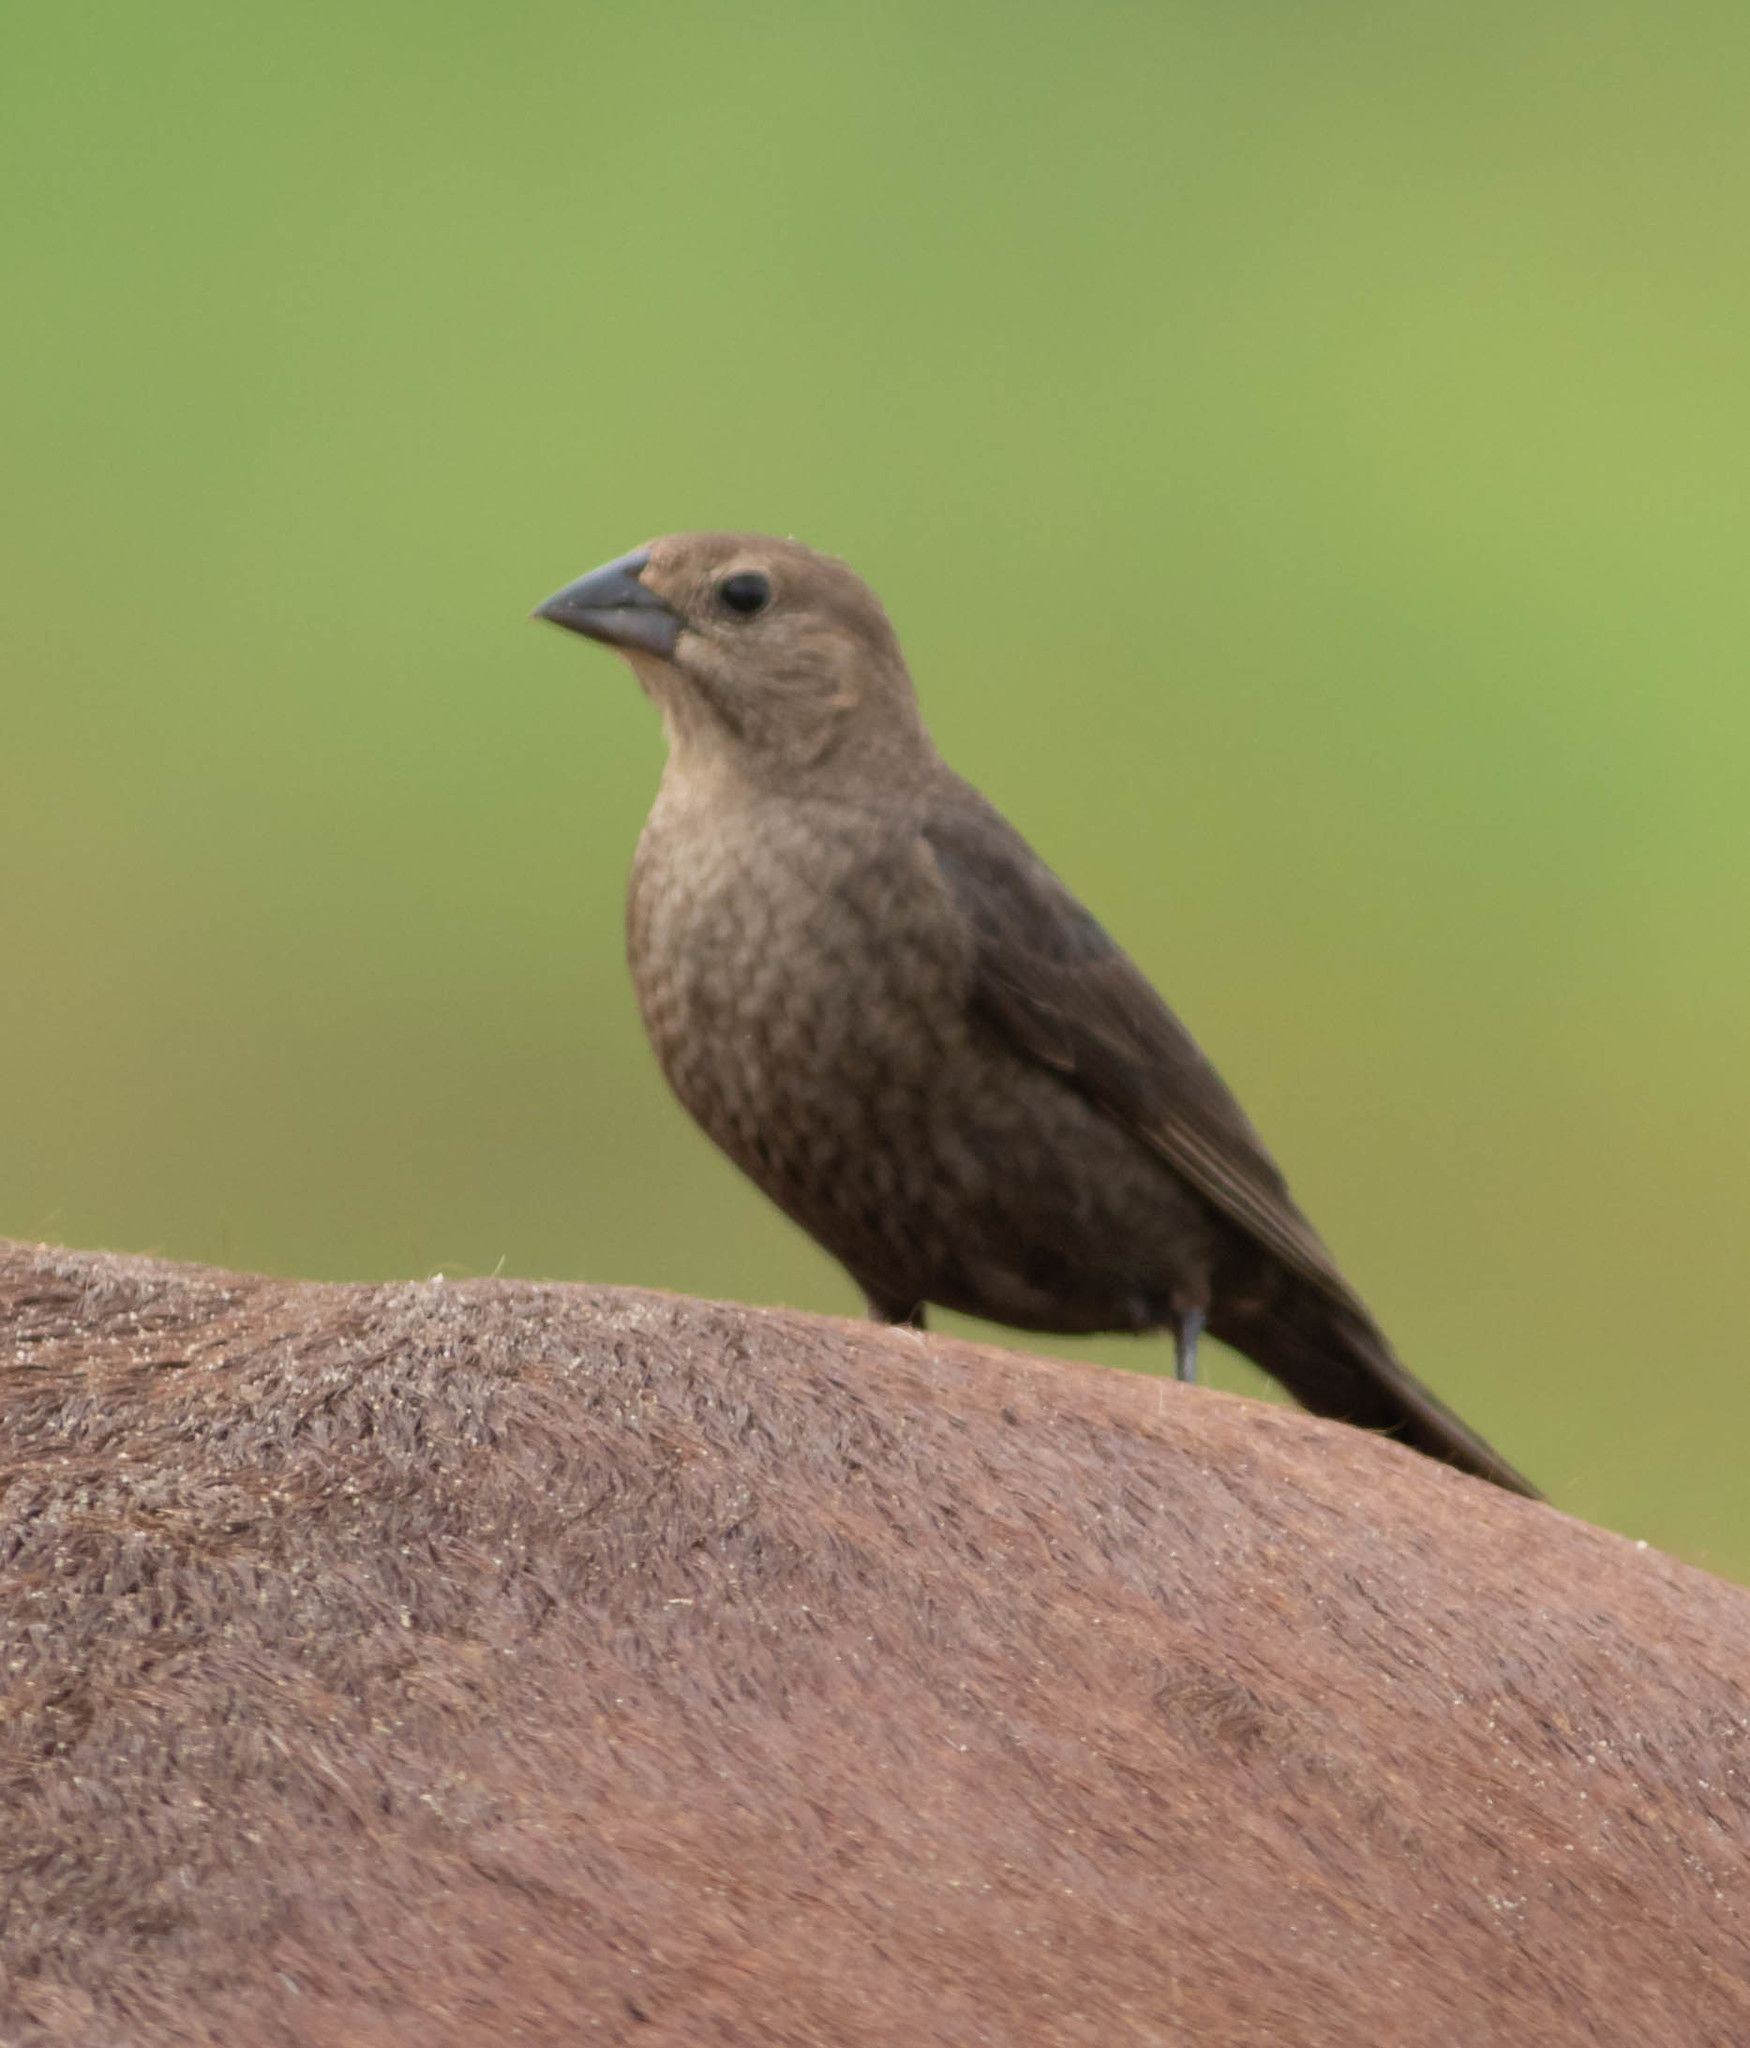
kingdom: Animalia
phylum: Chordata
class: Aves
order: Passeriformes
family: Icteridae
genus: Molothrus
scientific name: Molothrus ater
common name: Brown-headed cowbird
